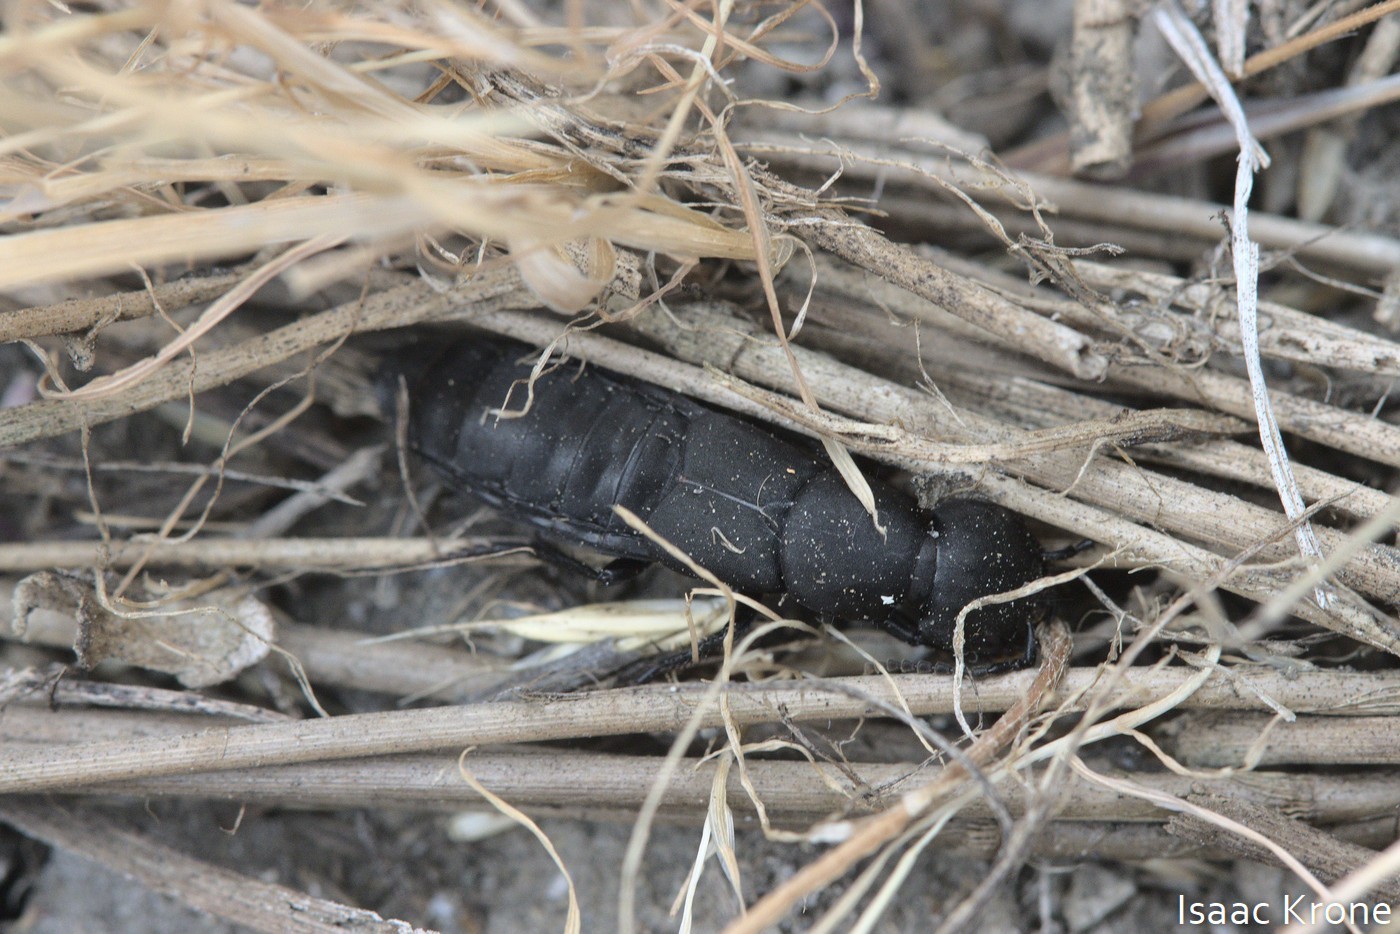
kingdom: Animalia
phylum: Arthropoda
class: Insecta
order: Coleoptera
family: Staphylinidae
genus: Ocypus
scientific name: Ocypus olens
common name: Devil's coach-horse
